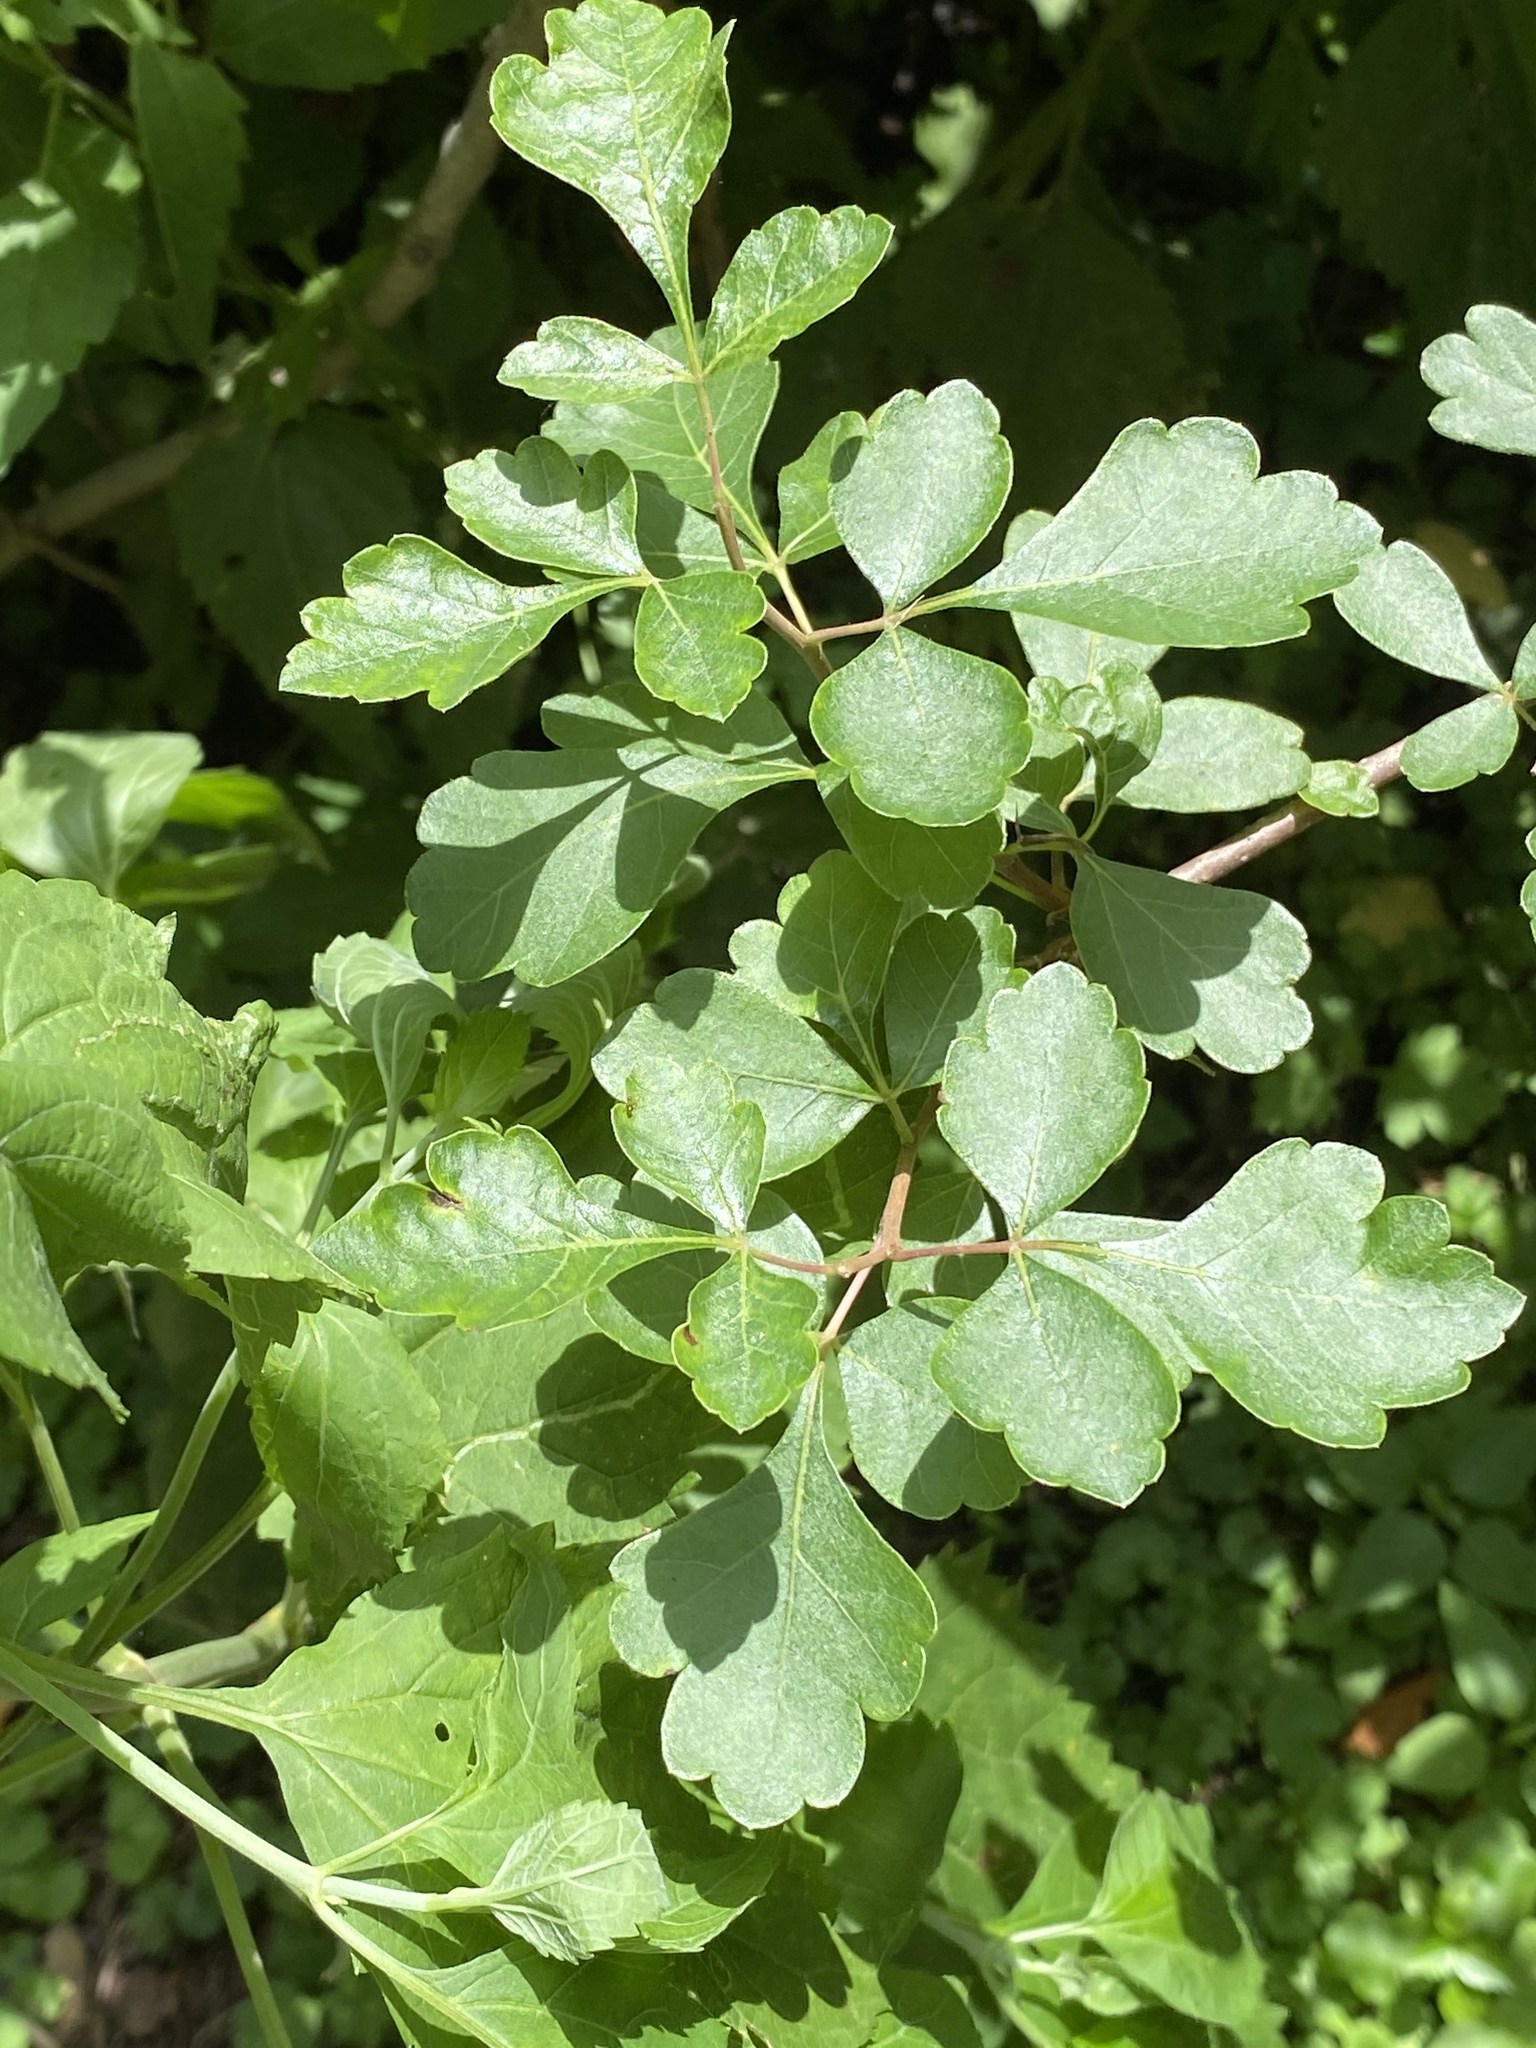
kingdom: Plantae
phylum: Tracheophyta
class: Magnoliopsida
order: Sapindales
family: Anacardiaceae
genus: Rhus
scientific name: Rhus aromatica
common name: Aromatic sumac
